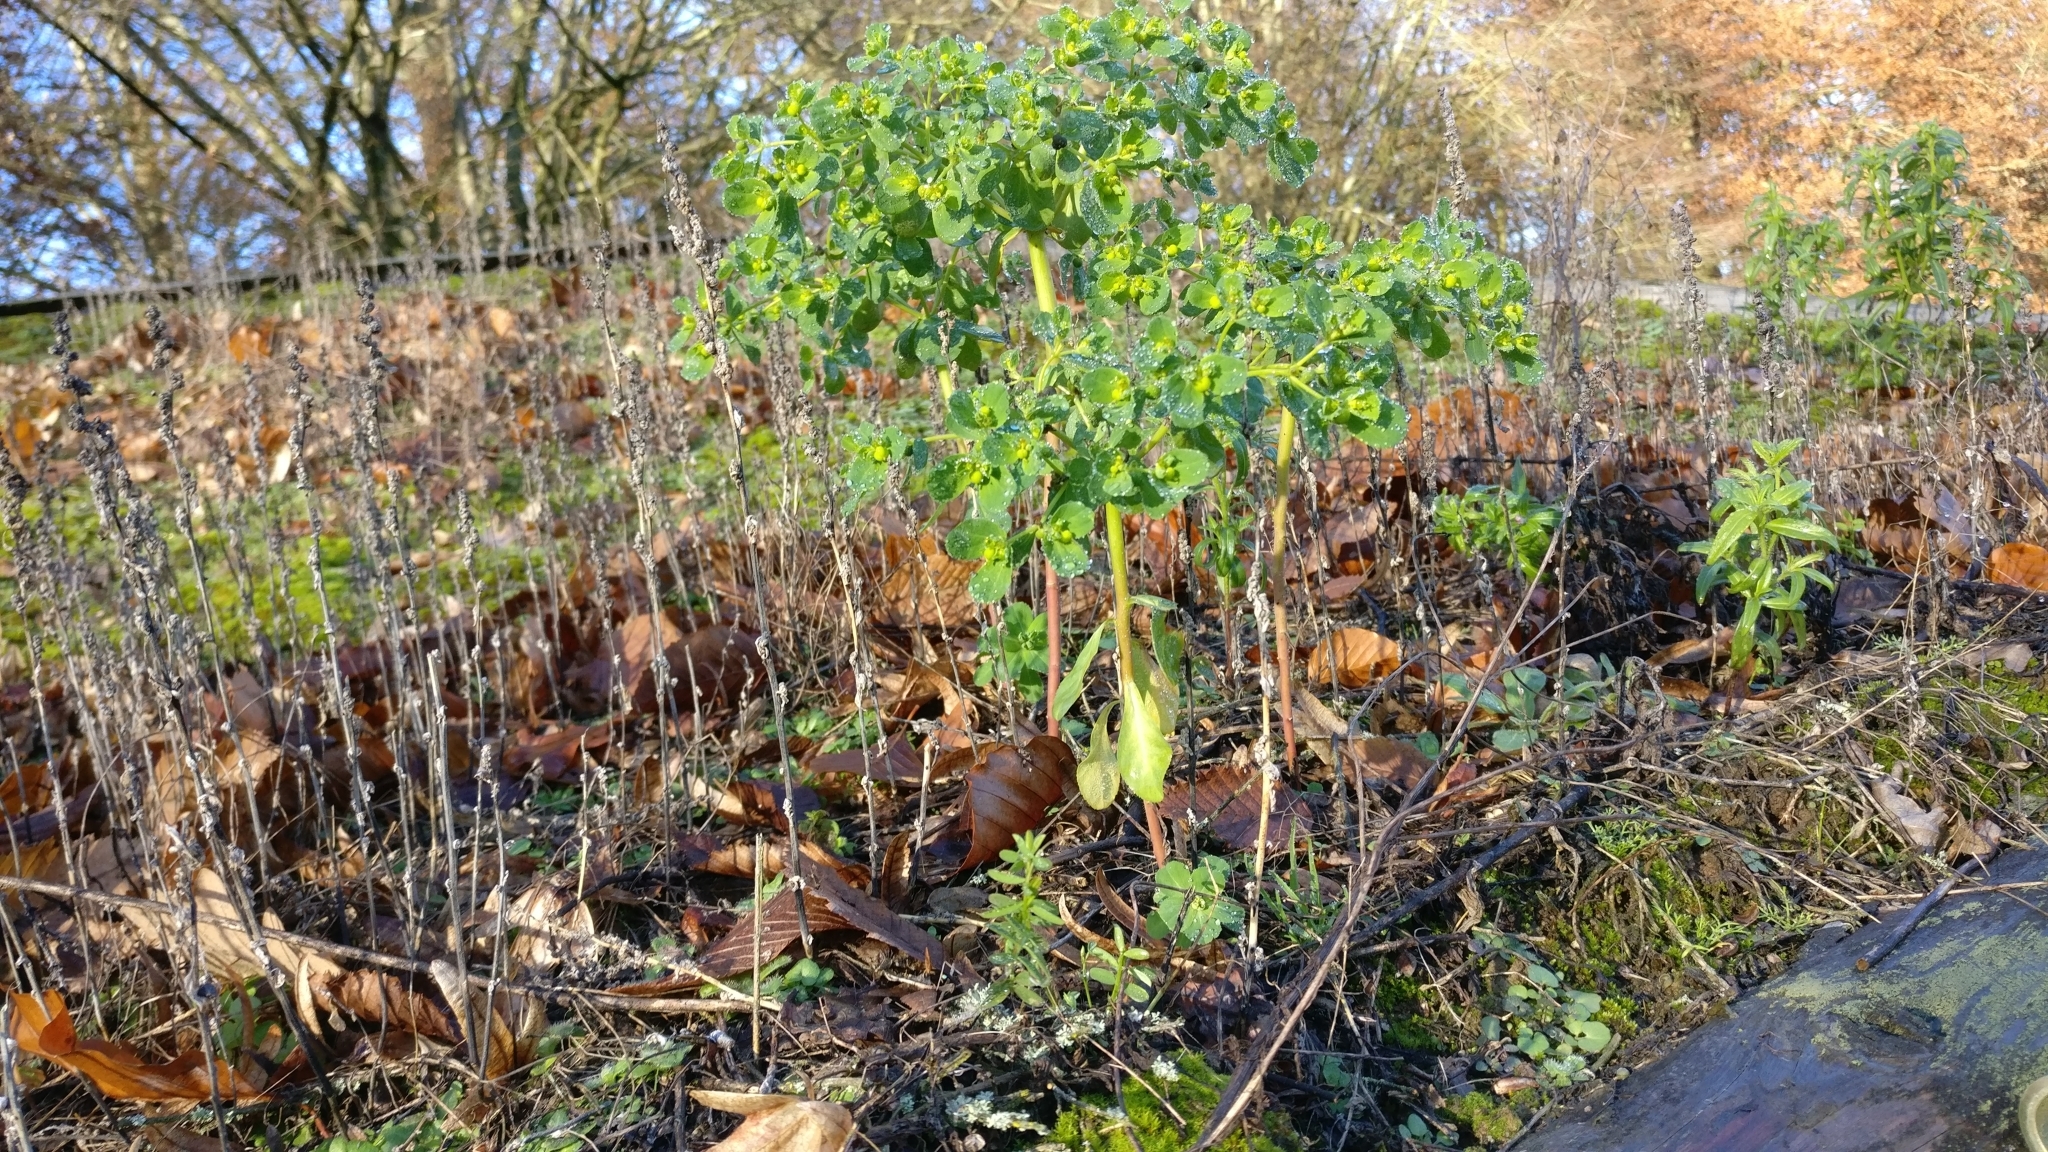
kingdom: Plantae
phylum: Tracheophyta
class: Magnoliopsida
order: Malpighiales
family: Euphorbiaceae
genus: Euphorbia
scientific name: Euphorbia helioscopia
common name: Sun spurge
